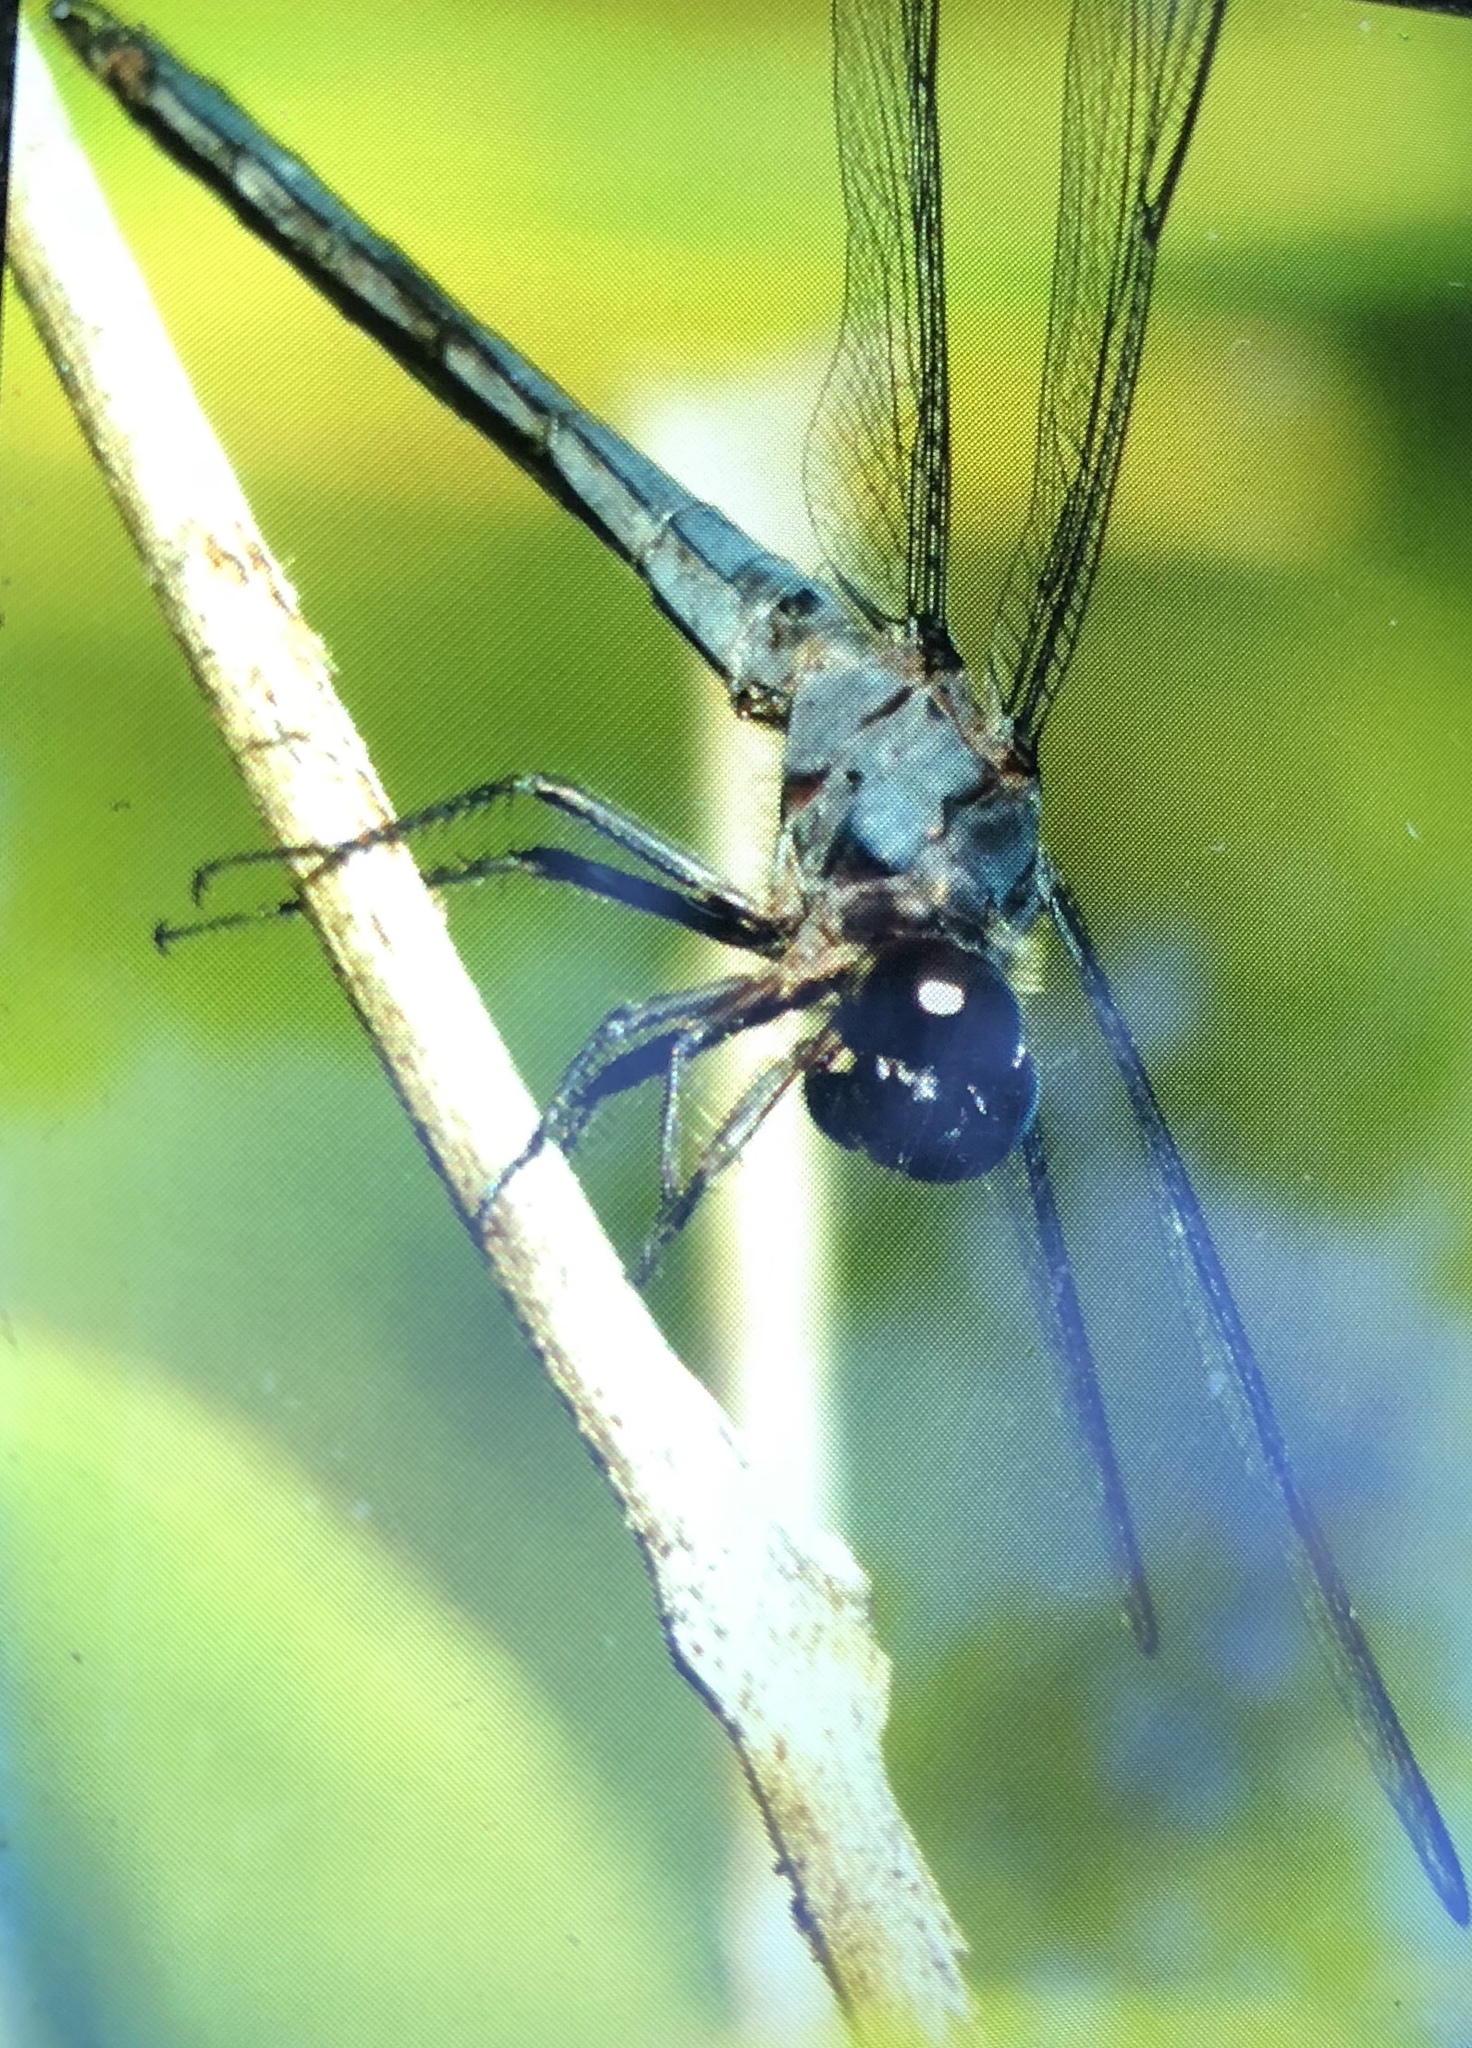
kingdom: Animalia
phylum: Arthropoda
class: Insecta
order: Odonata
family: Libellulidae
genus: Libellula
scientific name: Libellula incesta
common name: Slaty skimmer
